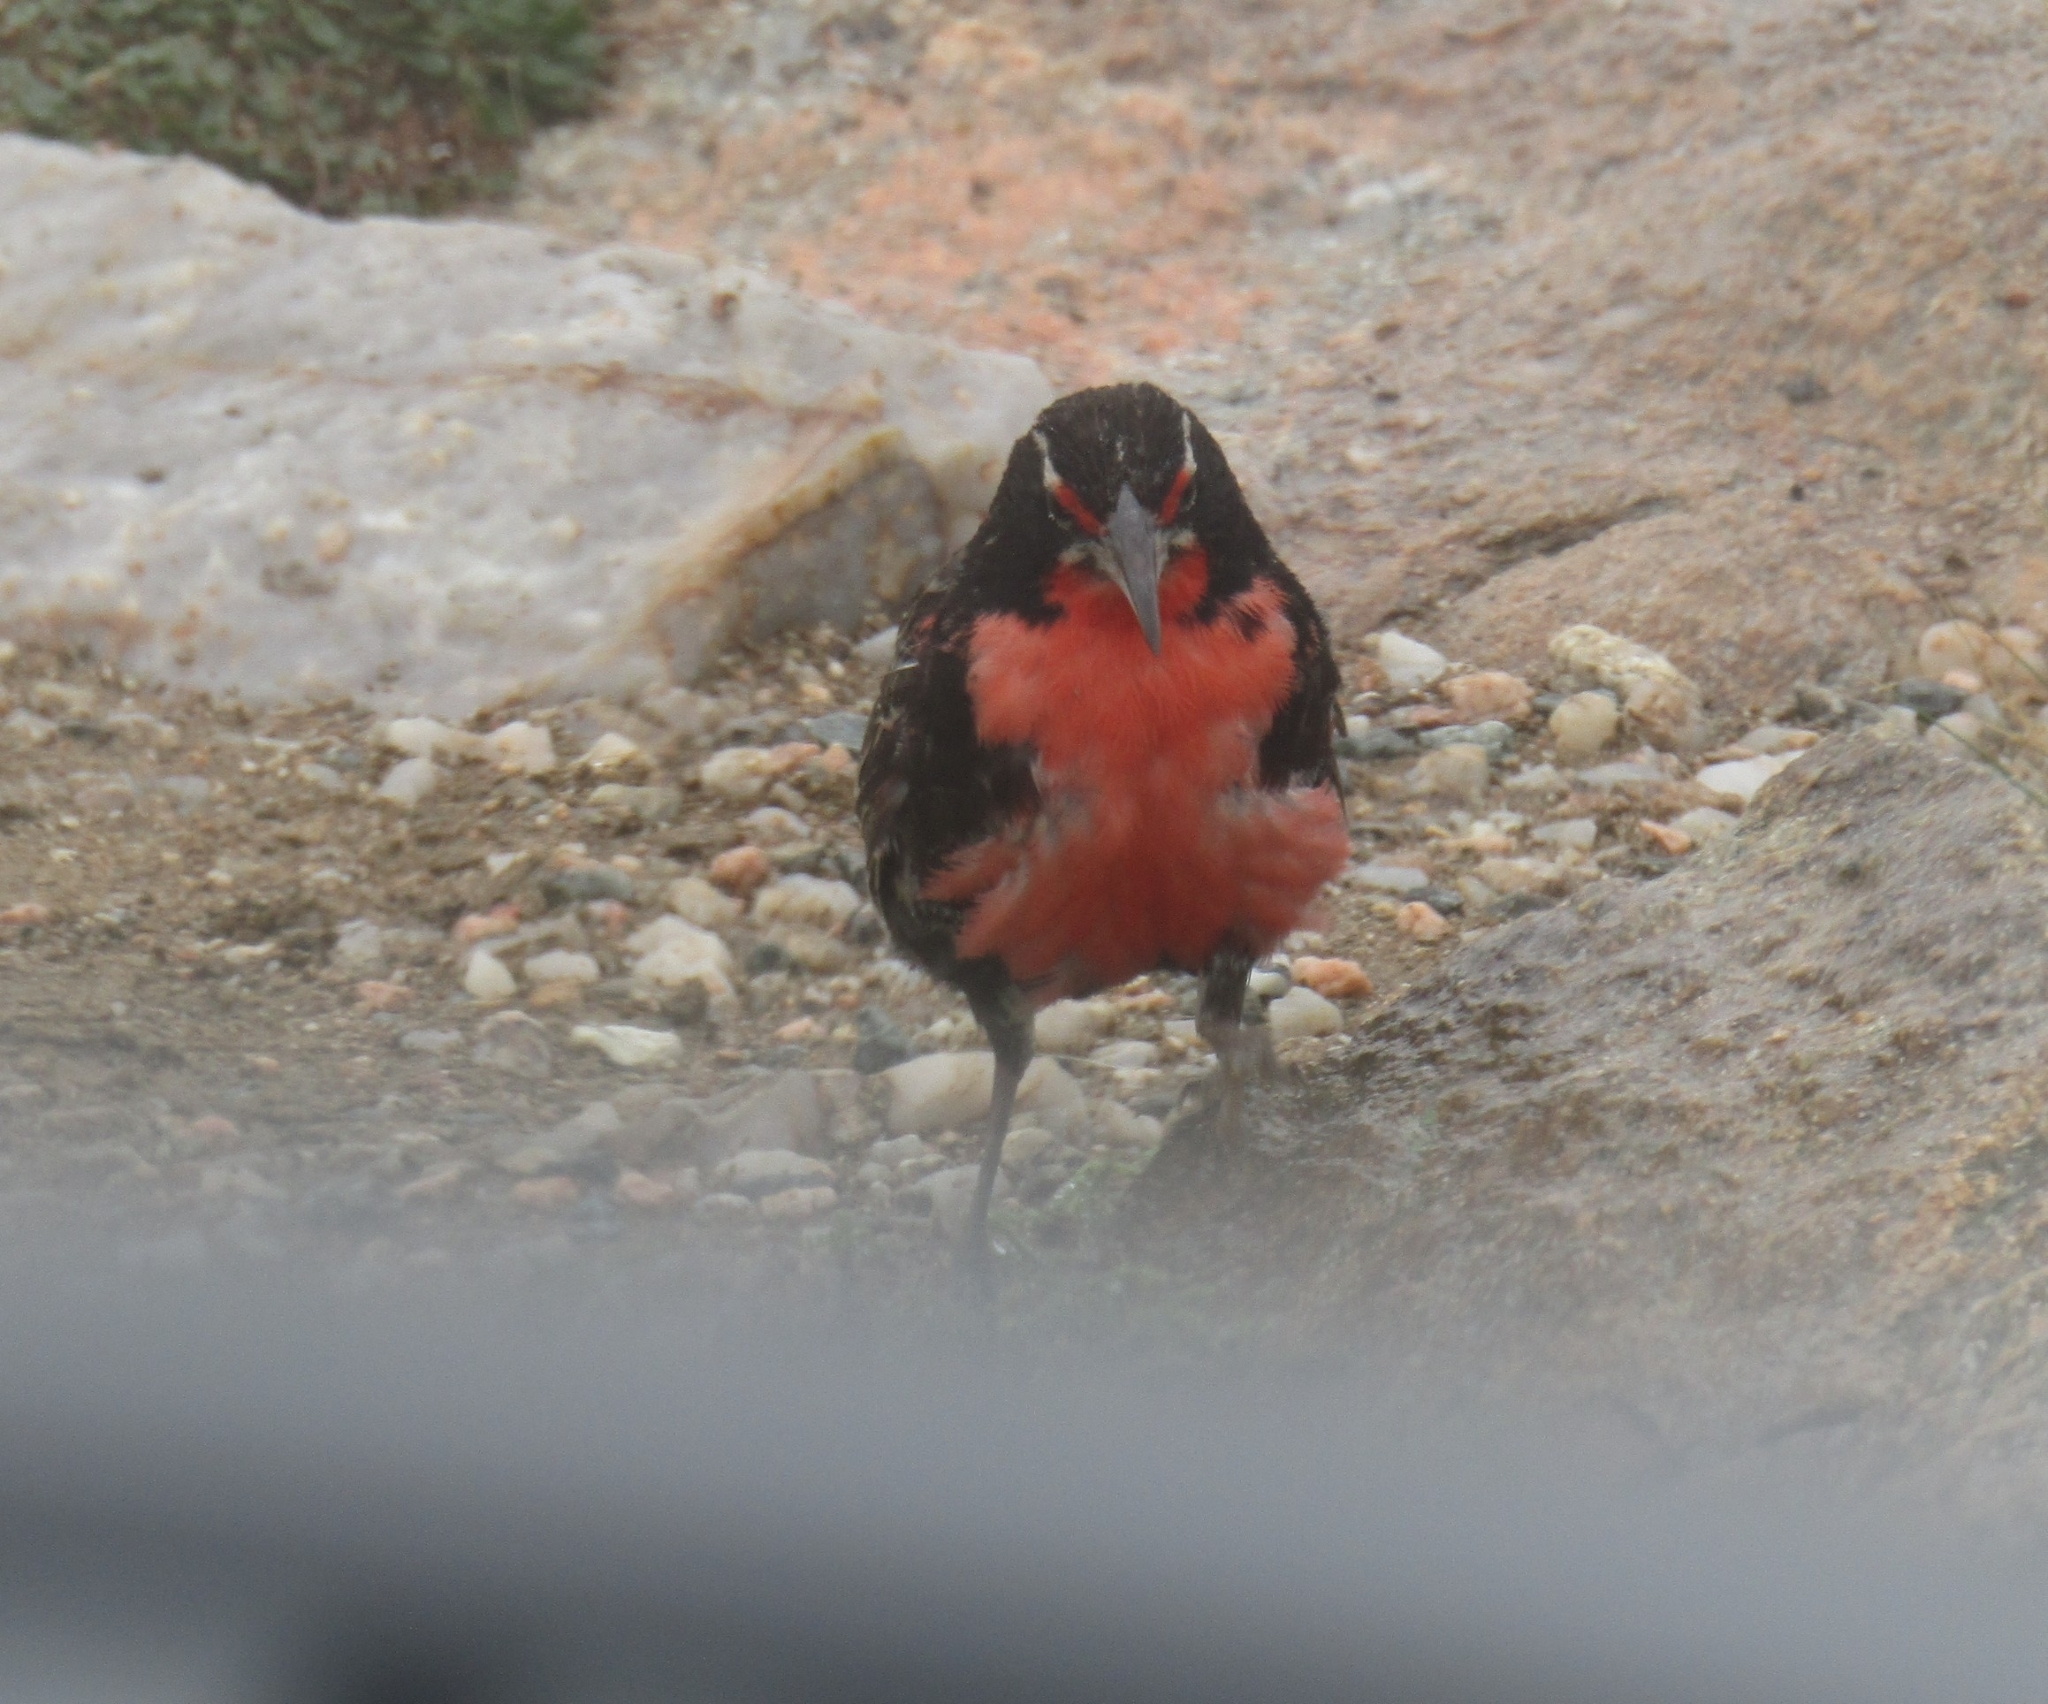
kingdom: Animalia
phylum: Chordata
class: Aves
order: Passeriformes
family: Icteridae
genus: Sturnella
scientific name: Sturnella loyca
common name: Long-tailed meadowlark
